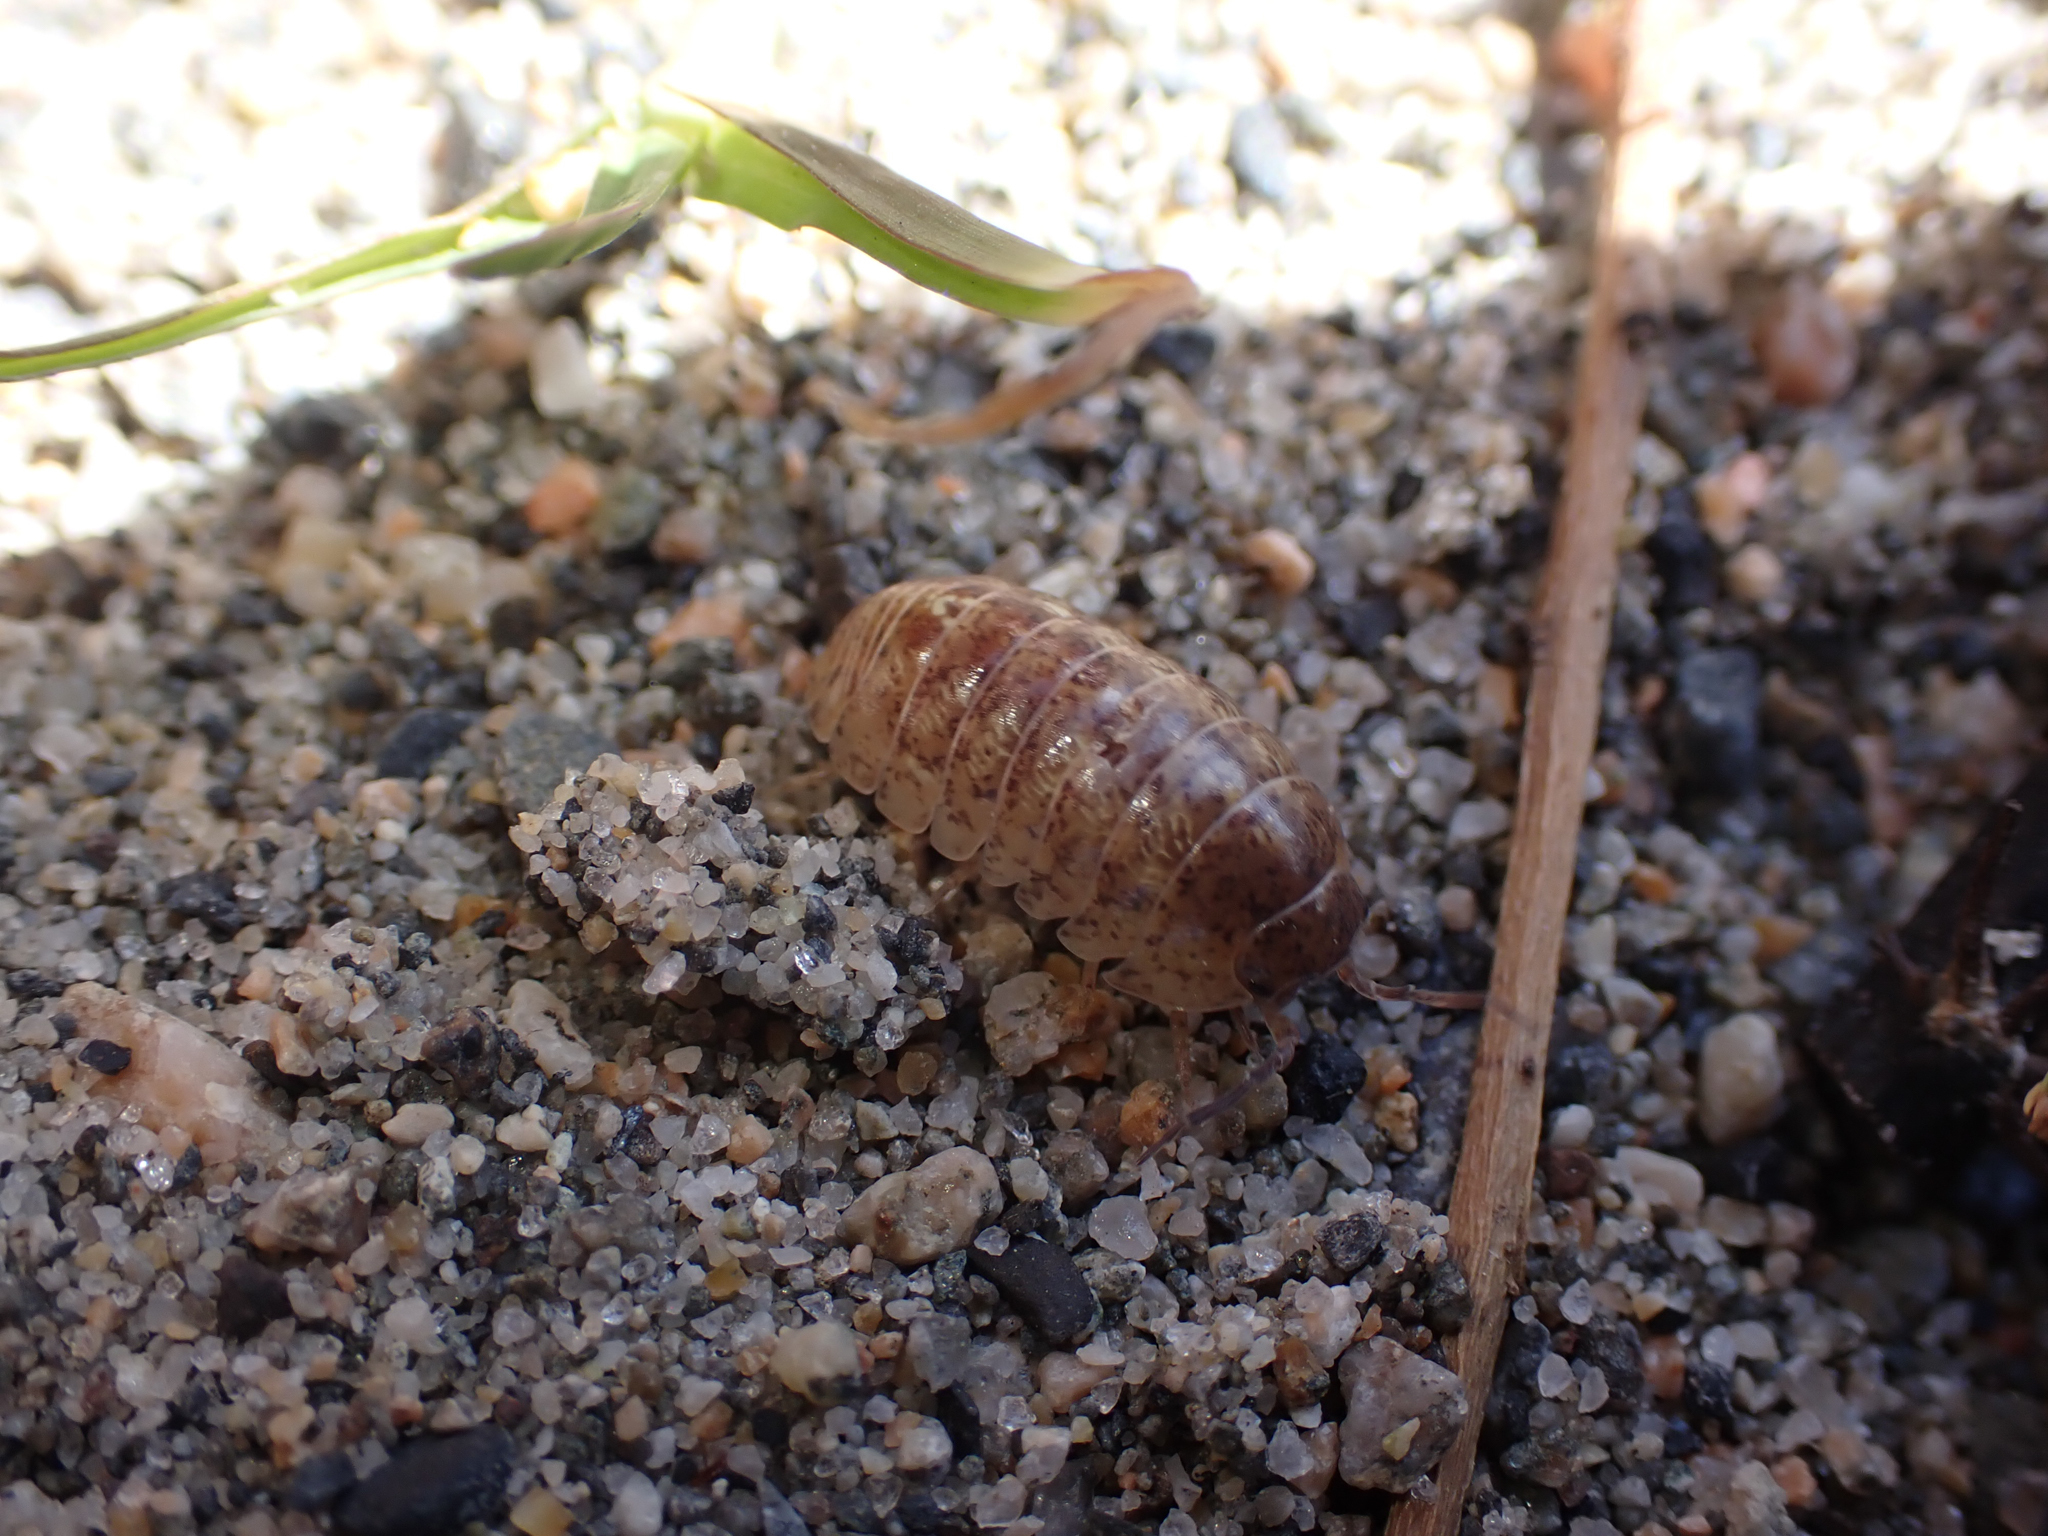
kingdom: Animalia
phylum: Arthropoda
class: Malacostraca
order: Isopoda
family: Armadillidiidae
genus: Armadillidium
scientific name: Armadillidium vulgare
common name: Common pill woodlouse
